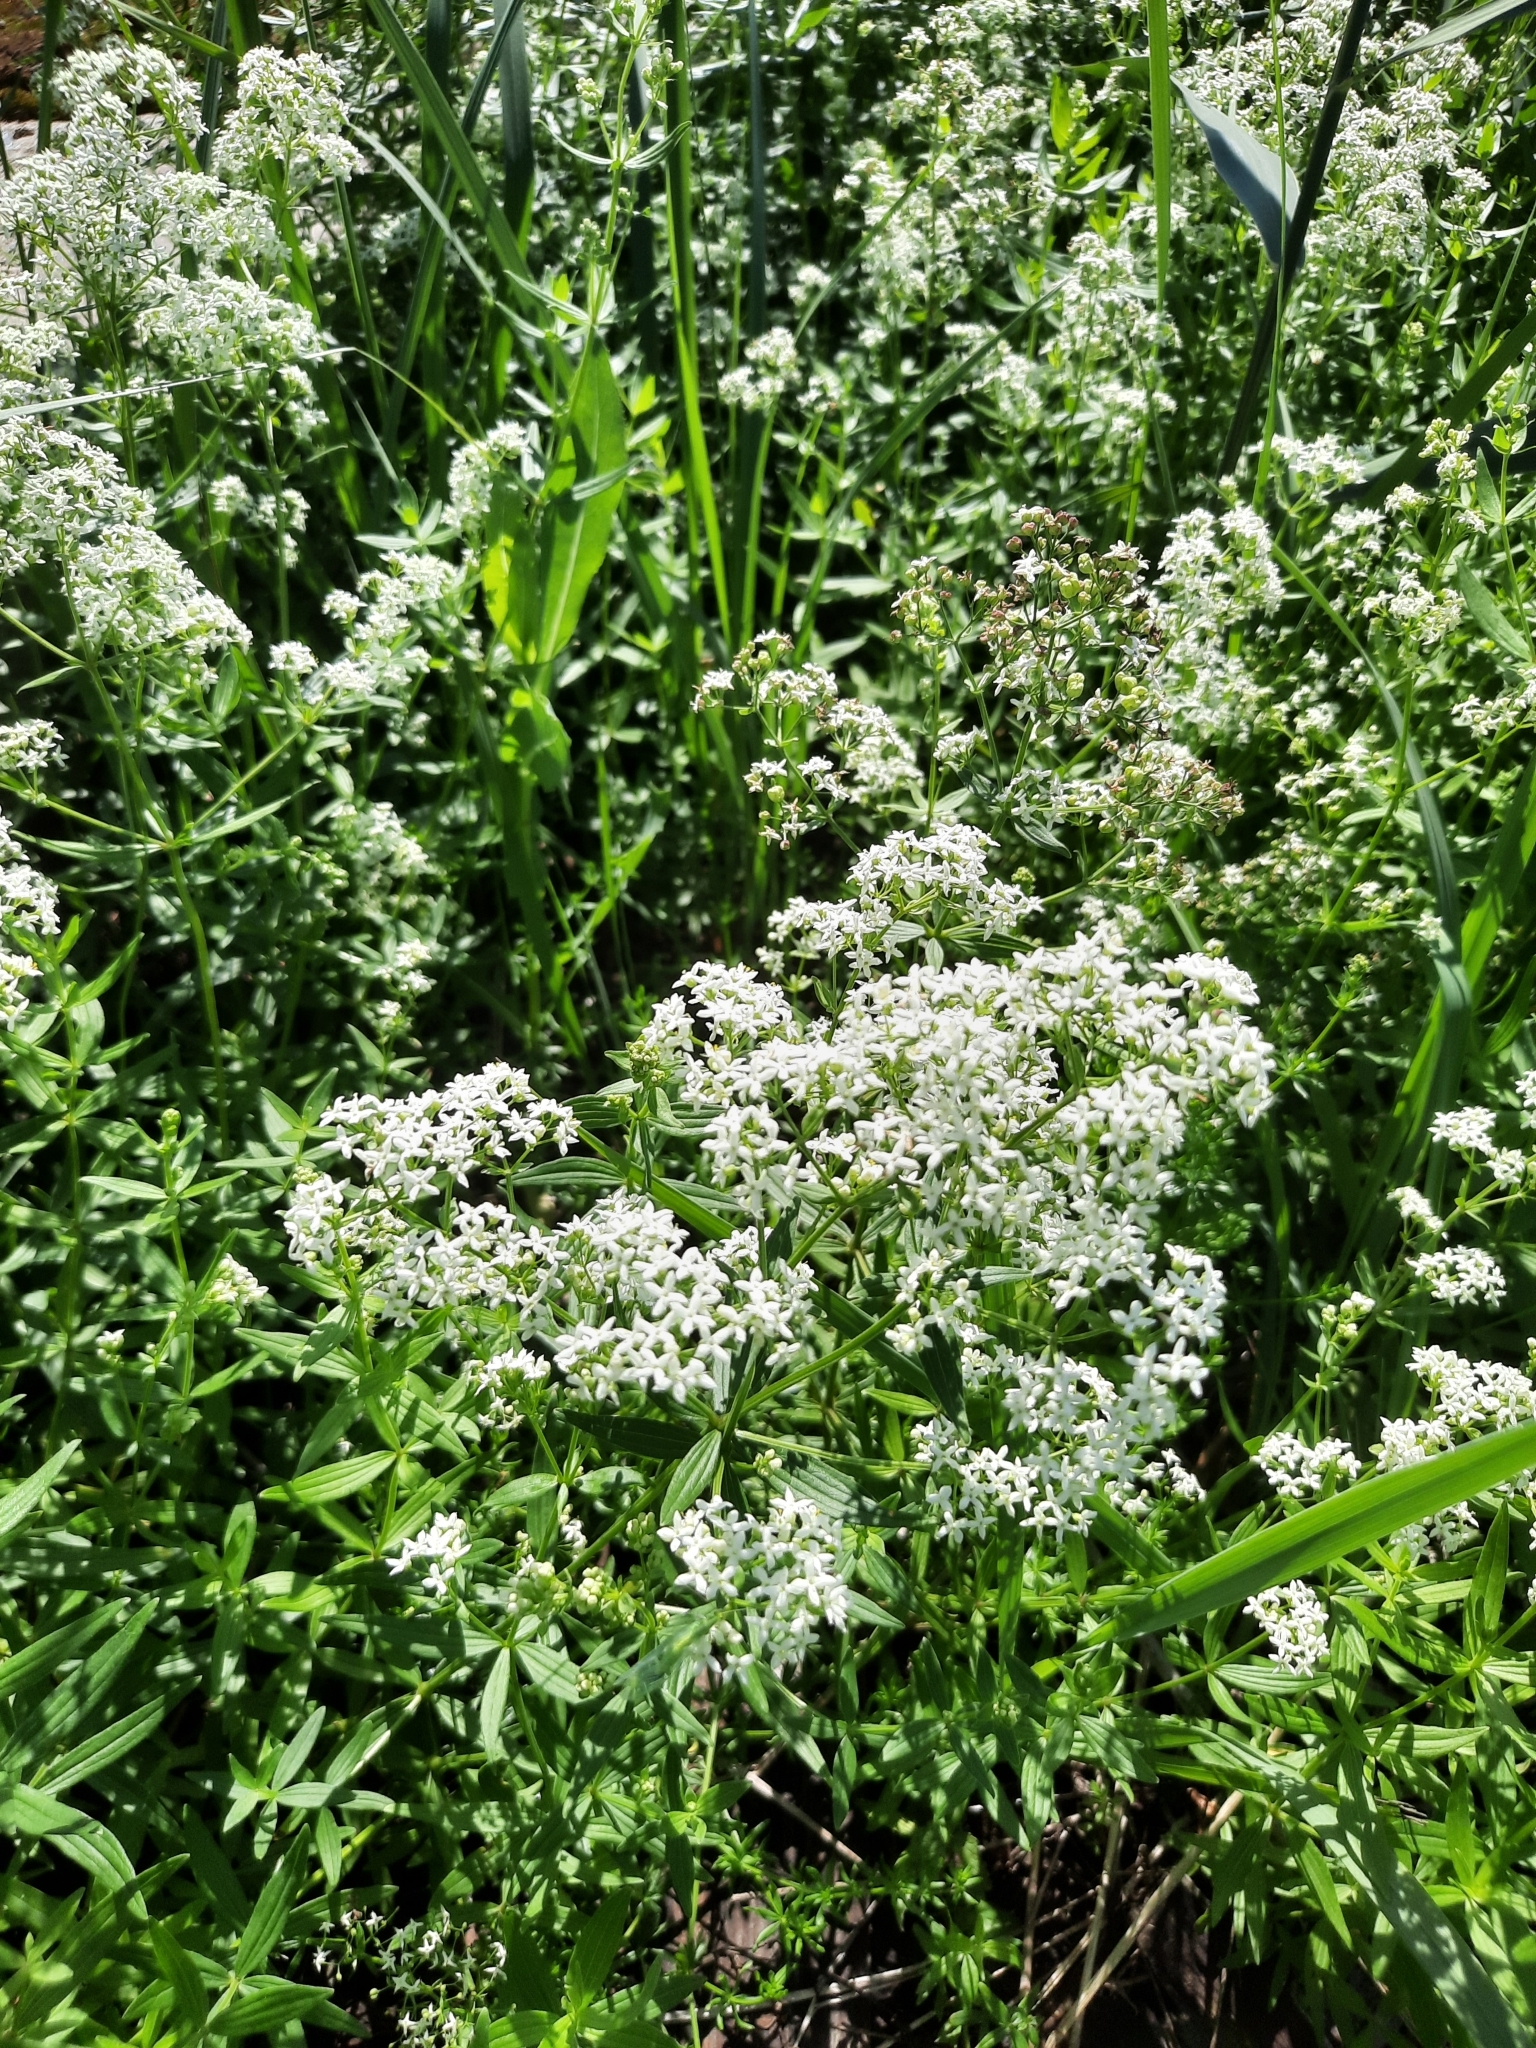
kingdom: Plantae
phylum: Tracheophyta
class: Magnoliopsida
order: Gentianales
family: Rubiaceae
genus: Galium
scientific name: Galium boreale
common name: Northern bedstraw
